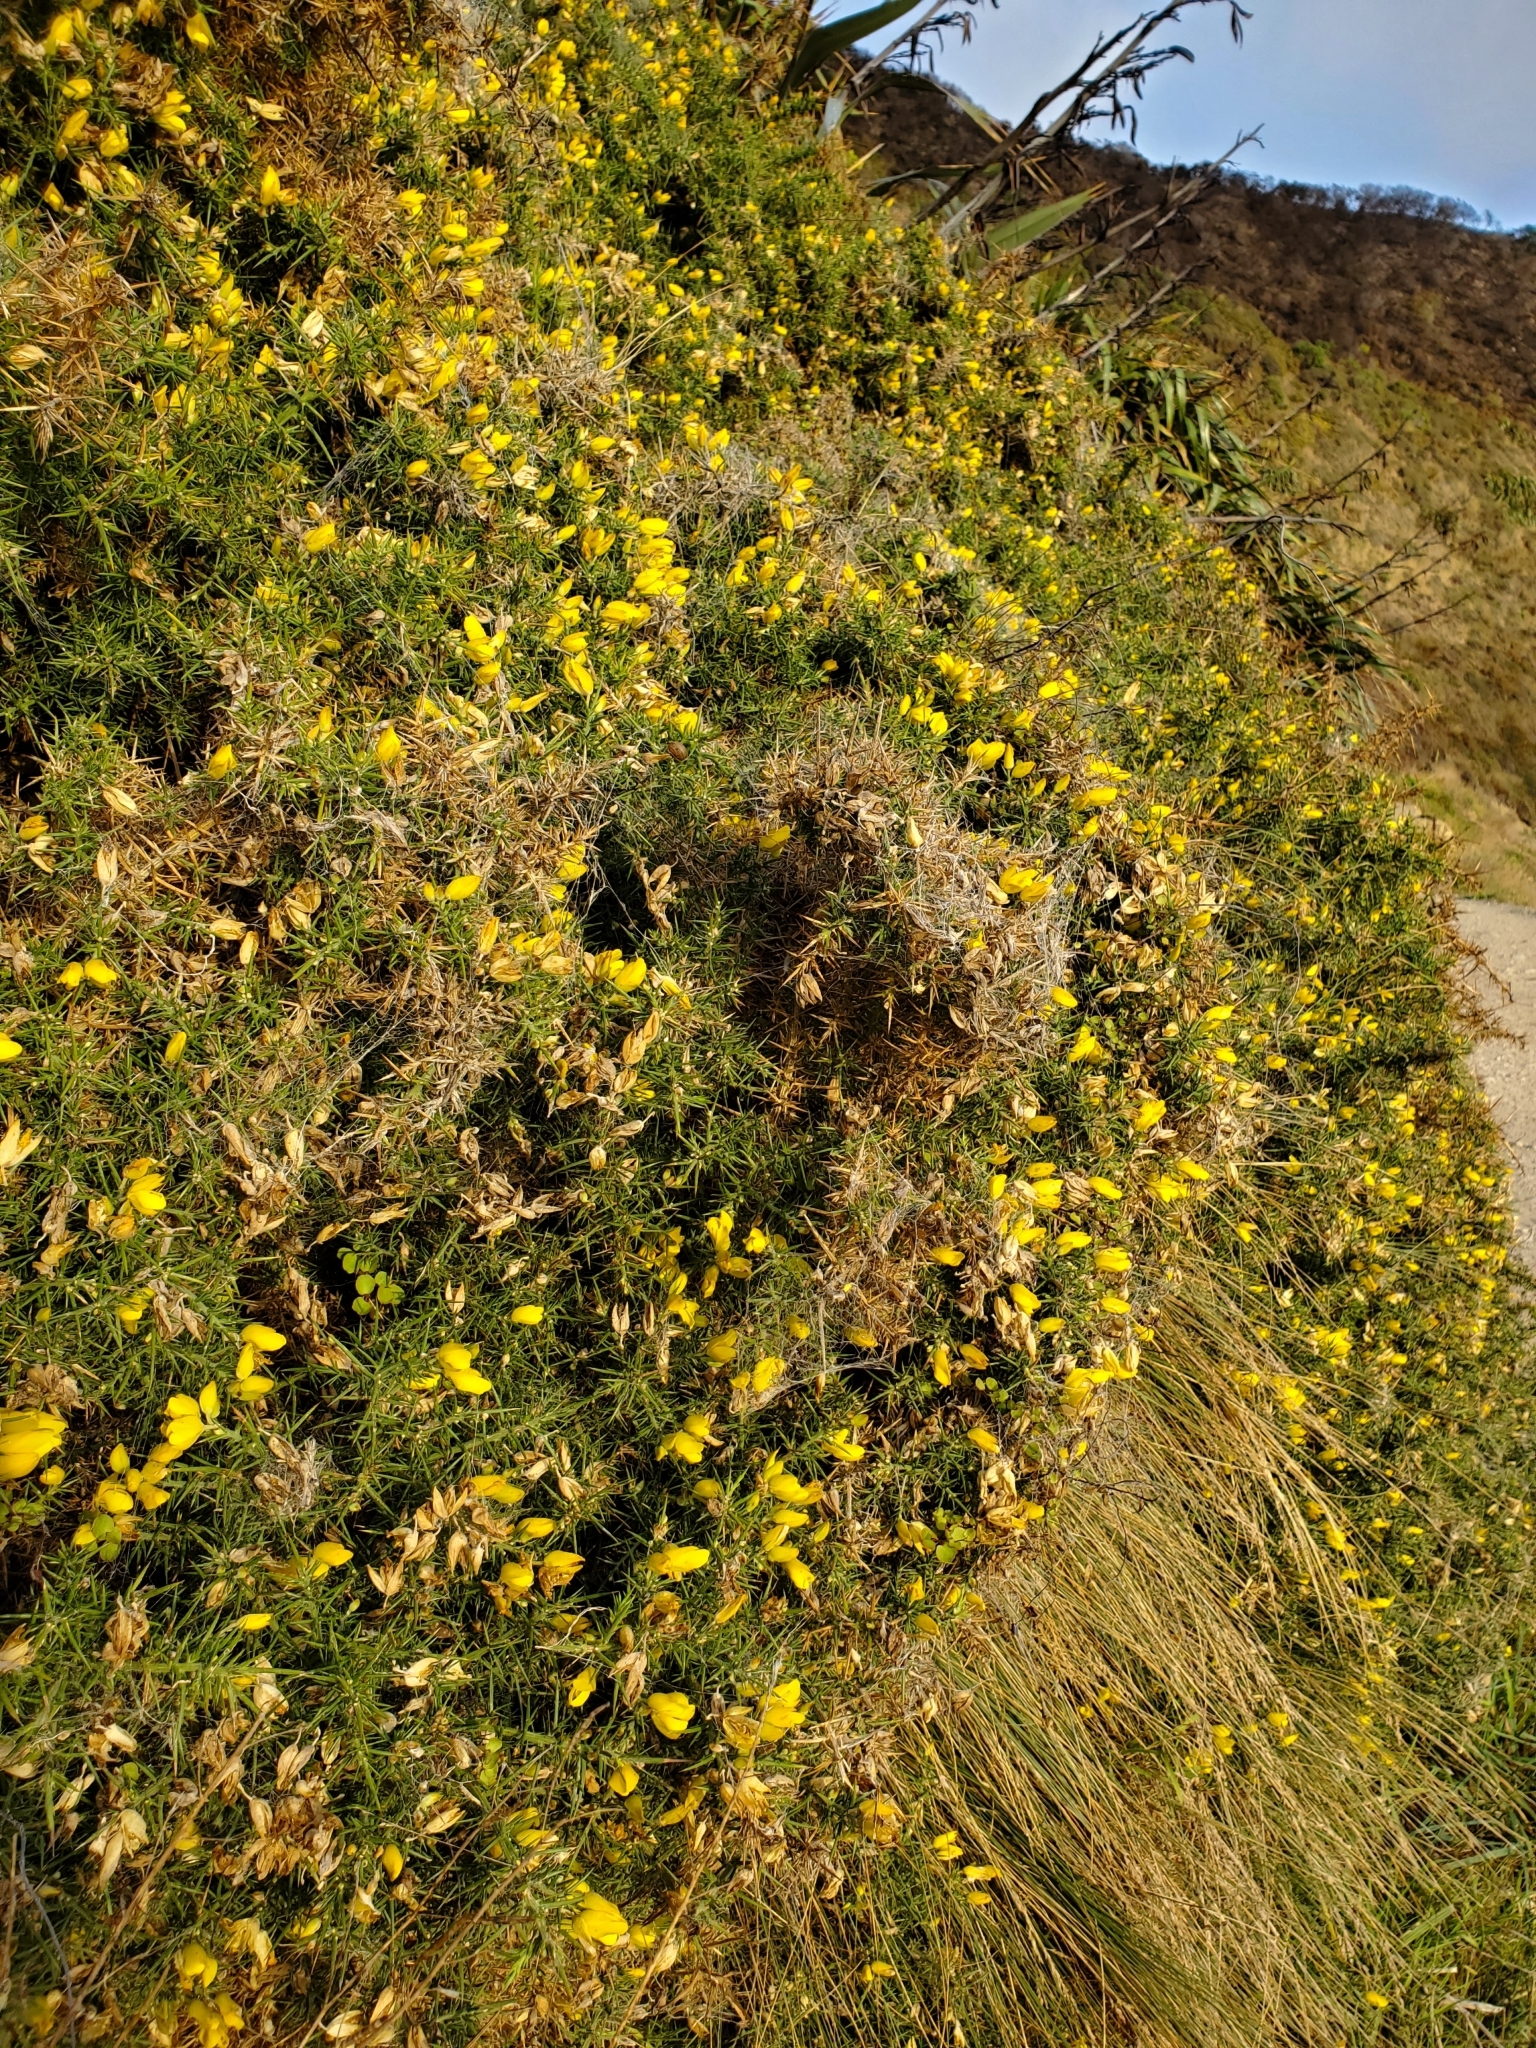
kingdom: Plantae
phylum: Tracheophyta
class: Magnoliopsida
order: Fabales
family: Fabaceae
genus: Ulex
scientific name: Ulex europaeus
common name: Common gorse
